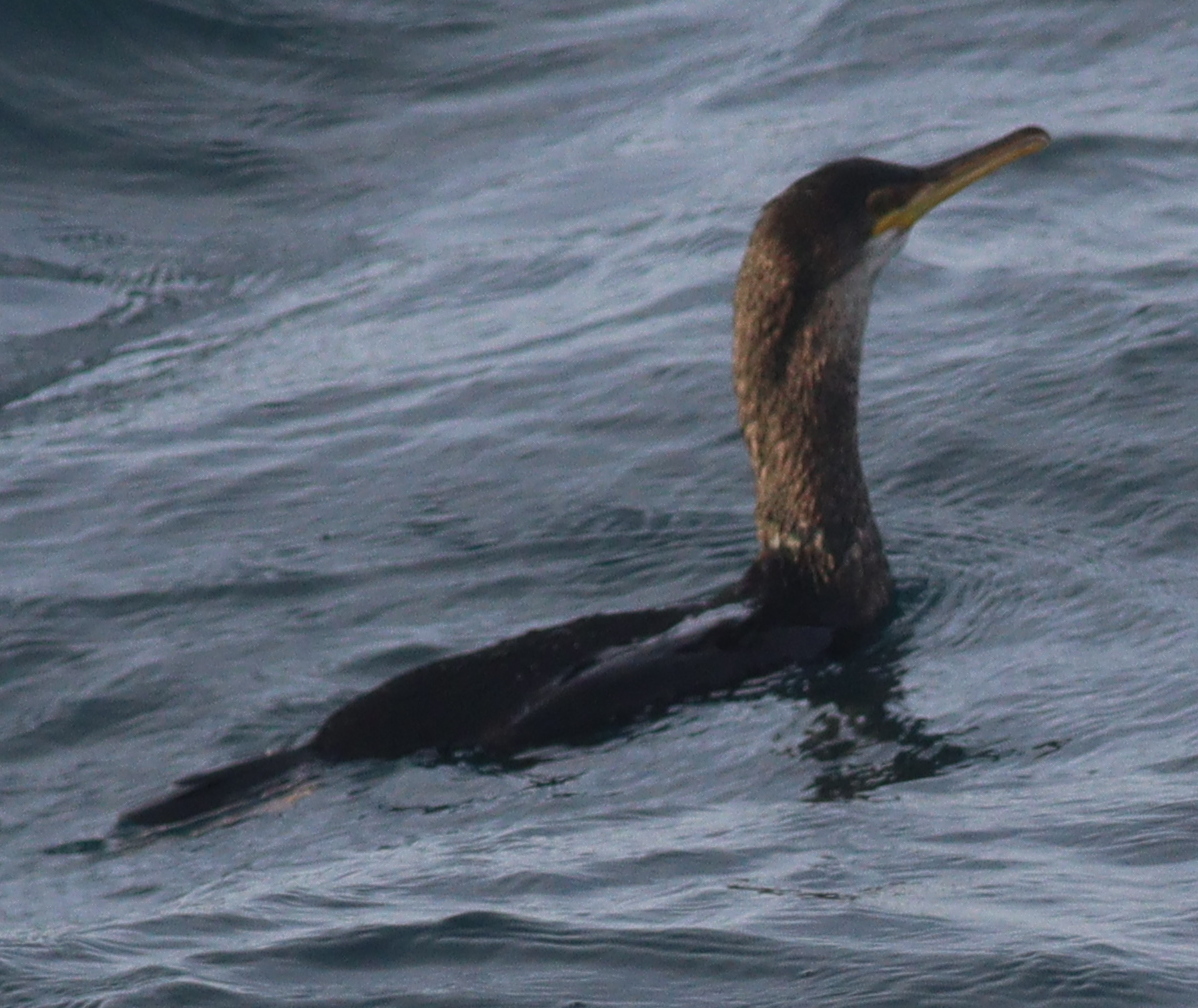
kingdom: Animalia
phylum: Chordata
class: Aves
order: Suliformes
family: Phalacrocoracidae
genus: Phalacrocorax
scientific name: Phalacrocorax aristotelis
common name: European shag
